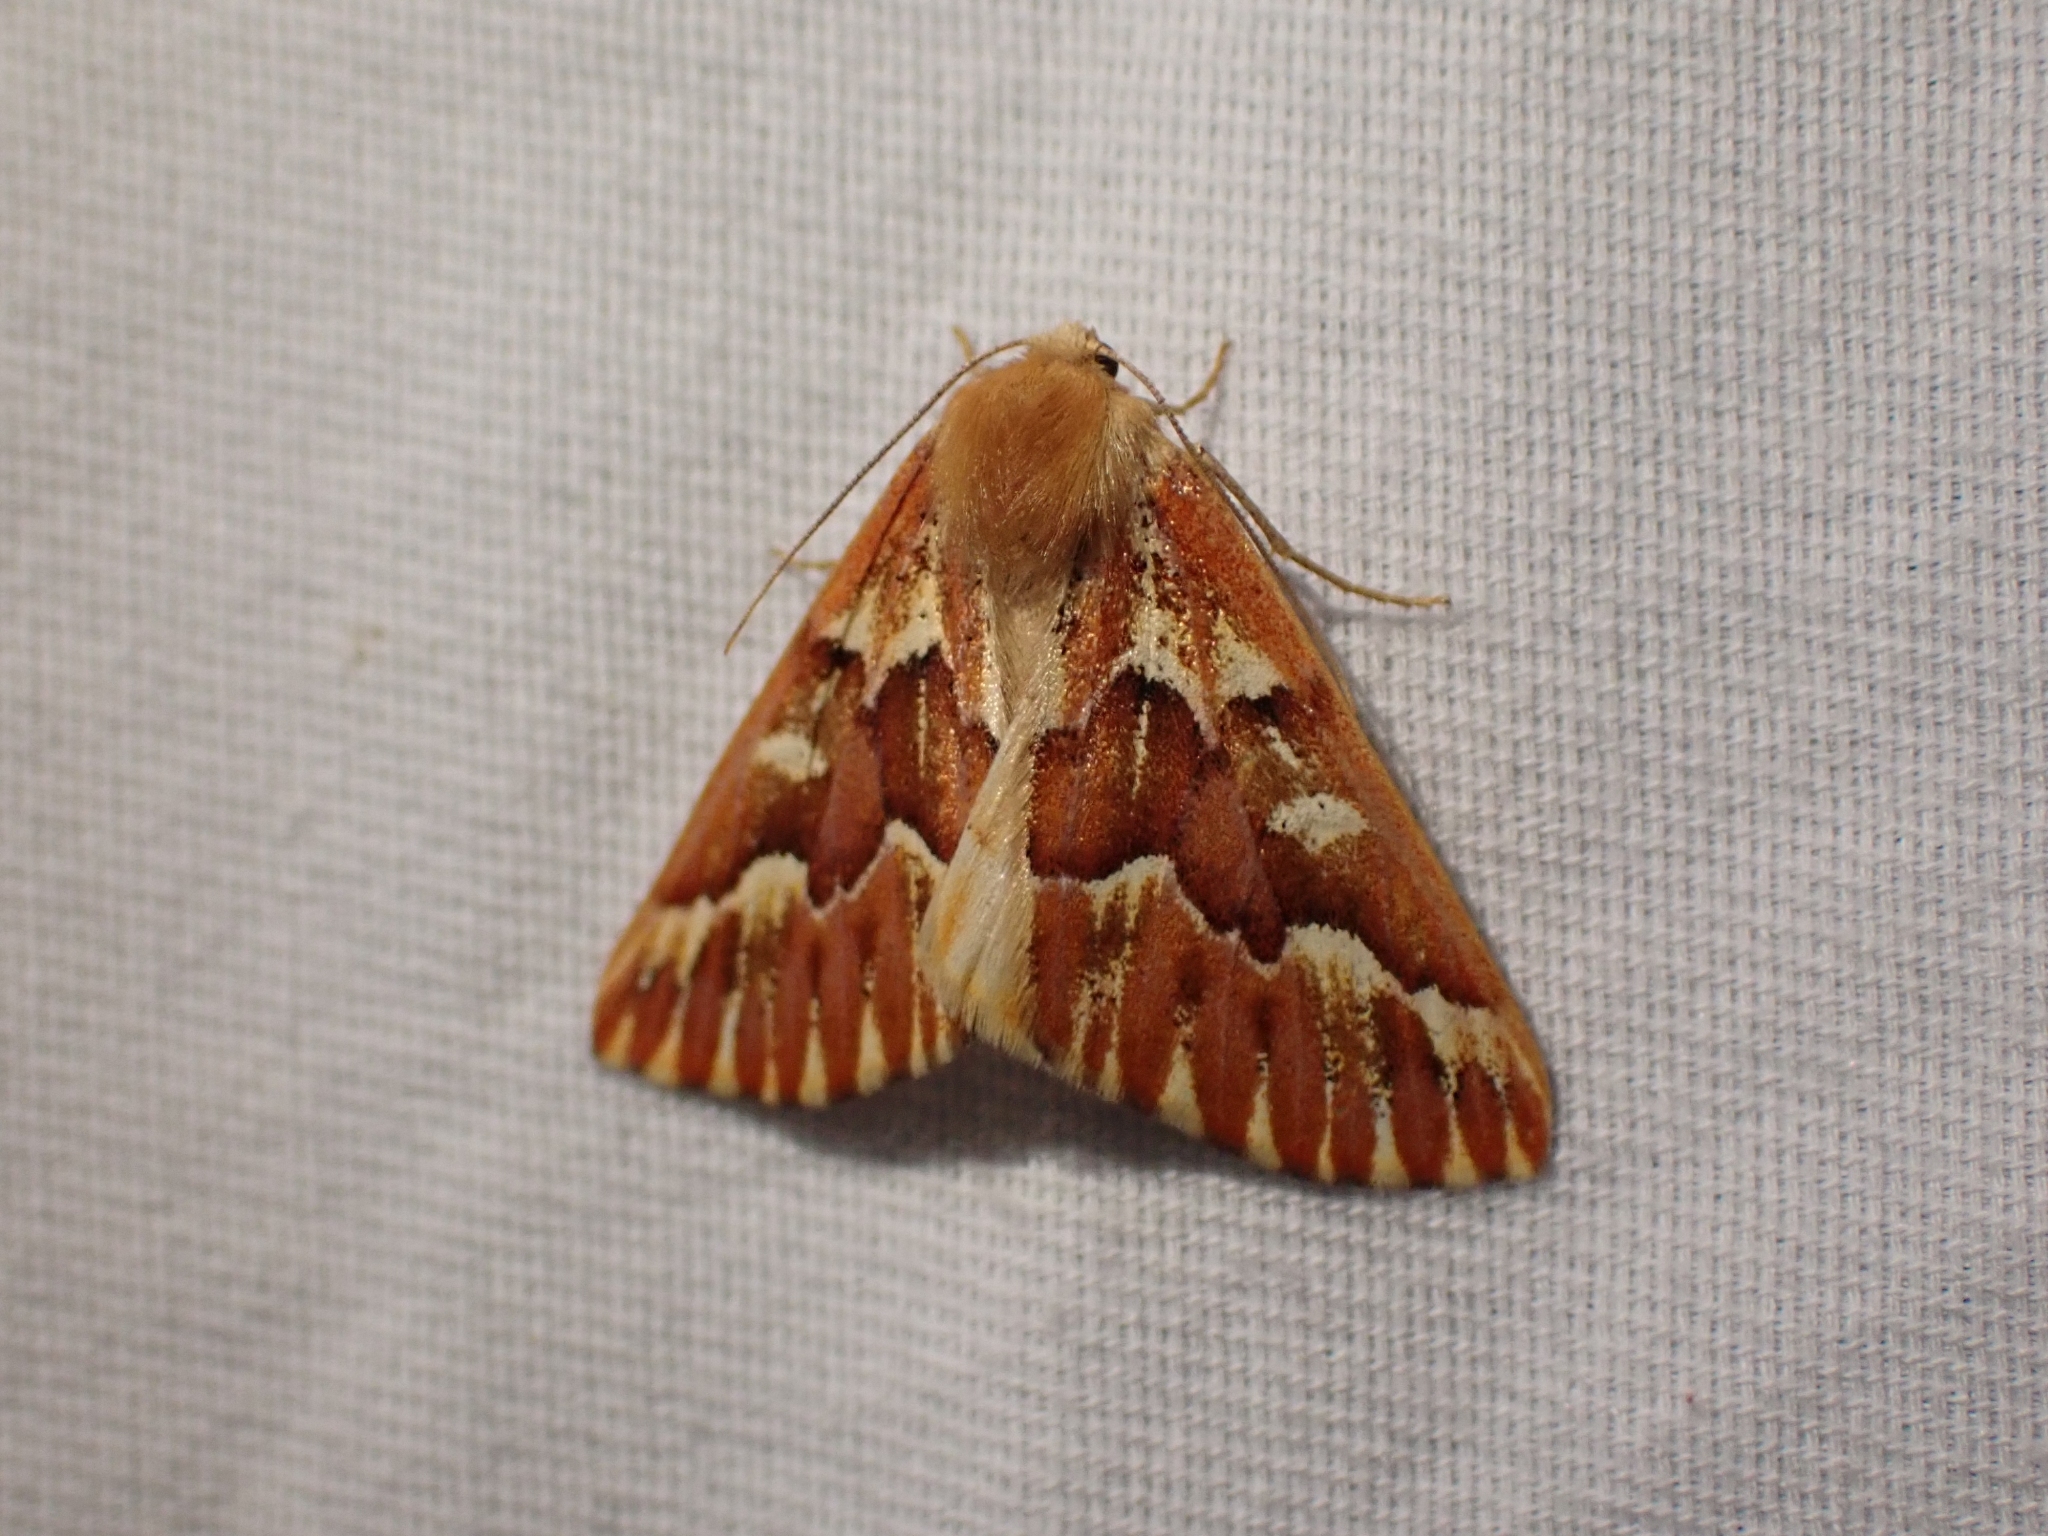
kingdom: Animalia
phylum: Arthropoda
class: Insecta
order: Lepidoptera
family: Geometridae
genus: Caripeta
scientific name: Caripeta aequaliaria
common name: Red girdle moth
